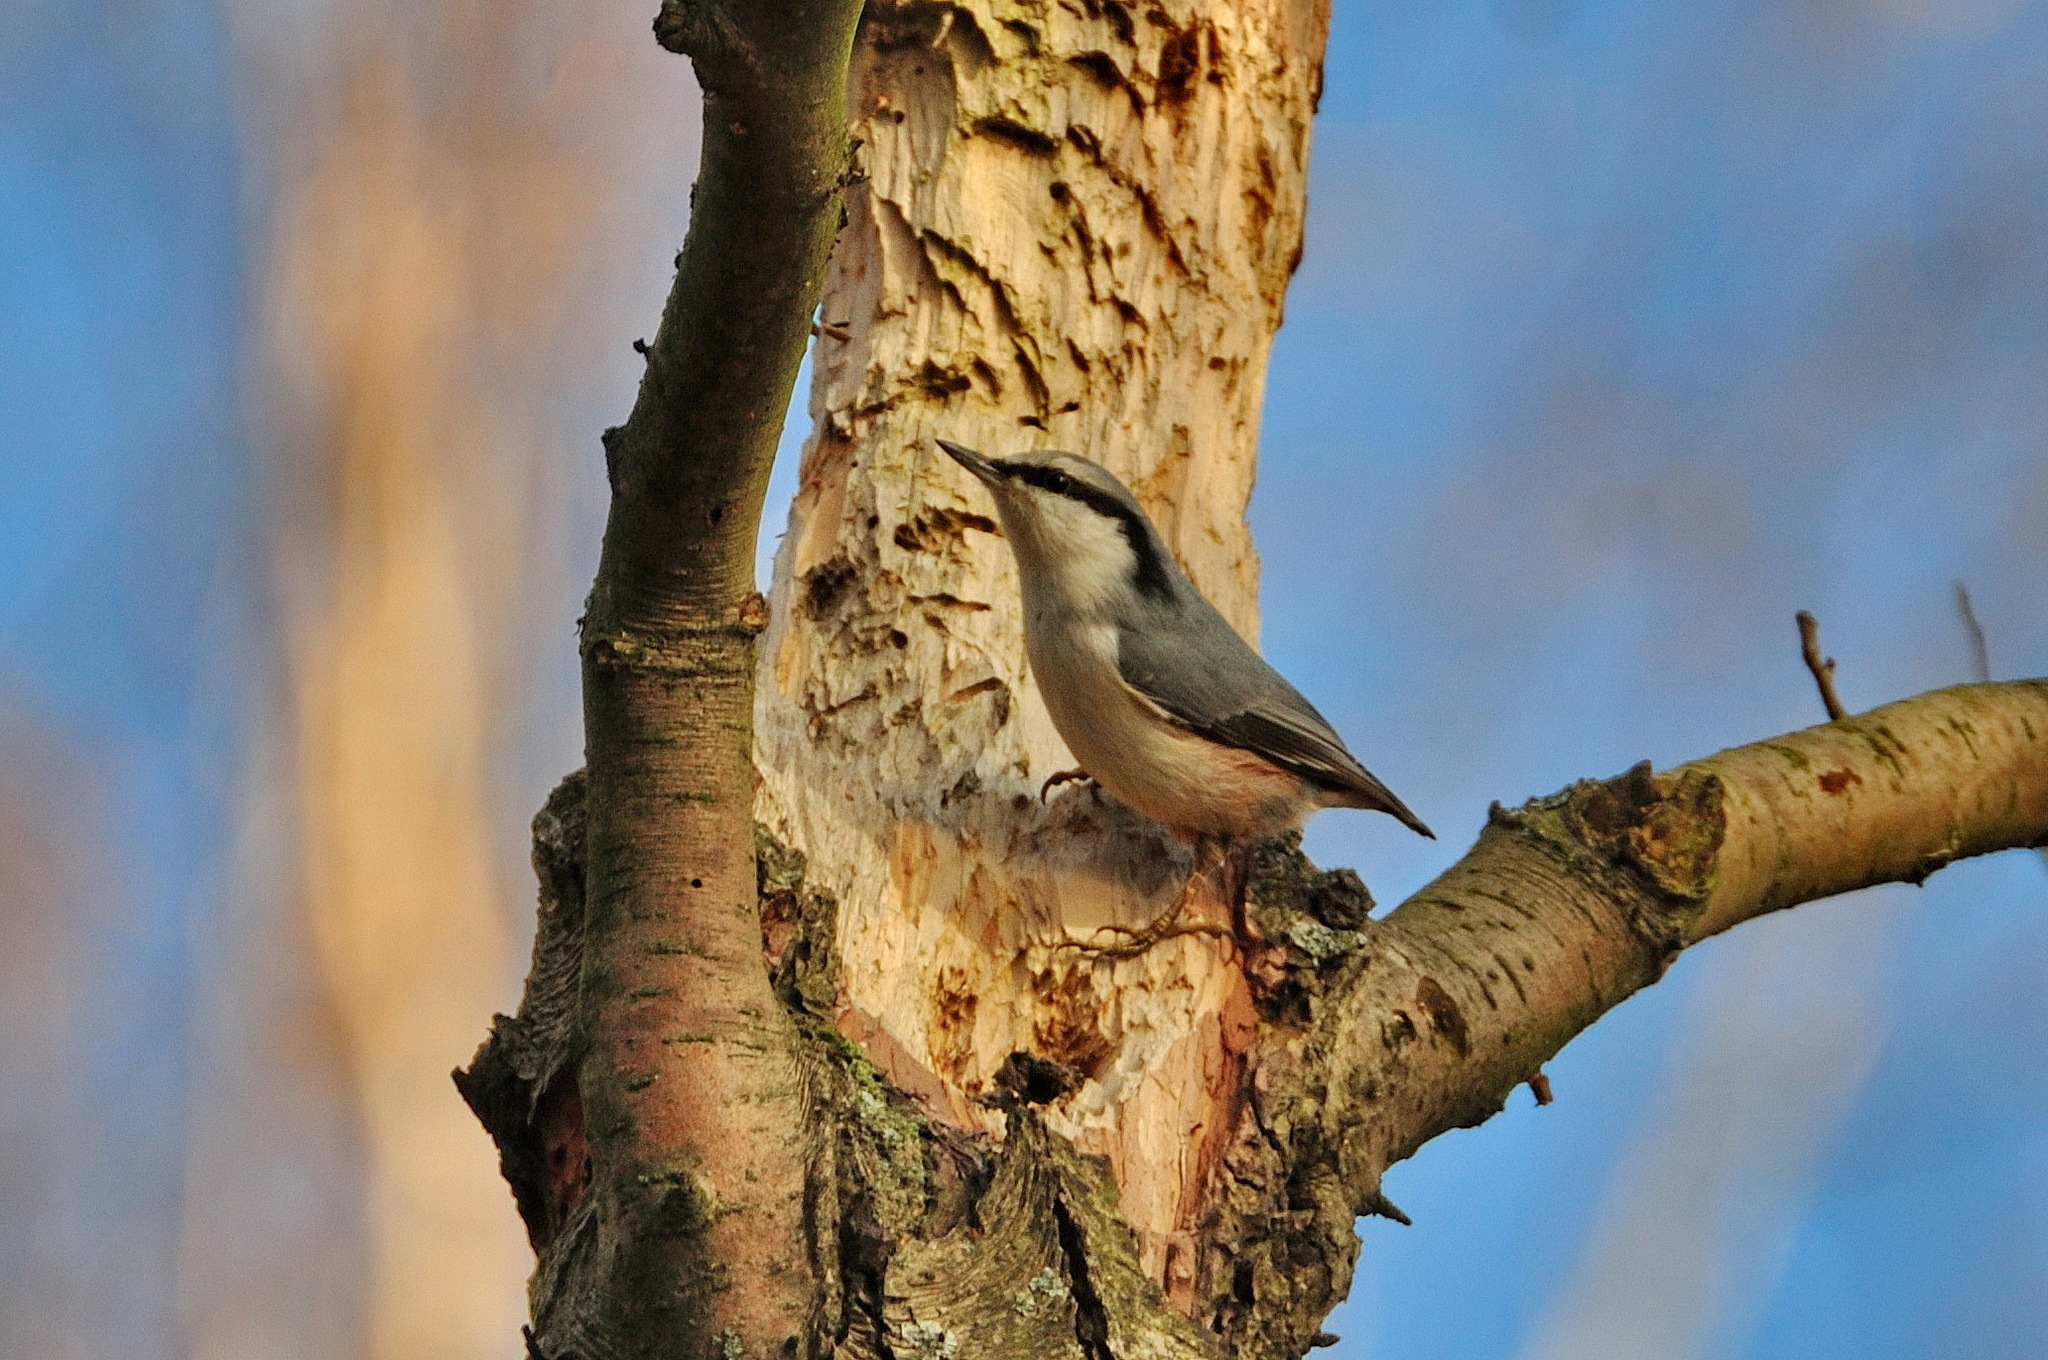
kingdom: Animalia
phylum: Chordata
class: Aves
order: Passeriformes
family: Sittidae
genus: Sitta
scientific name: Sitta europaea
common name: Eurasian nuthatch
